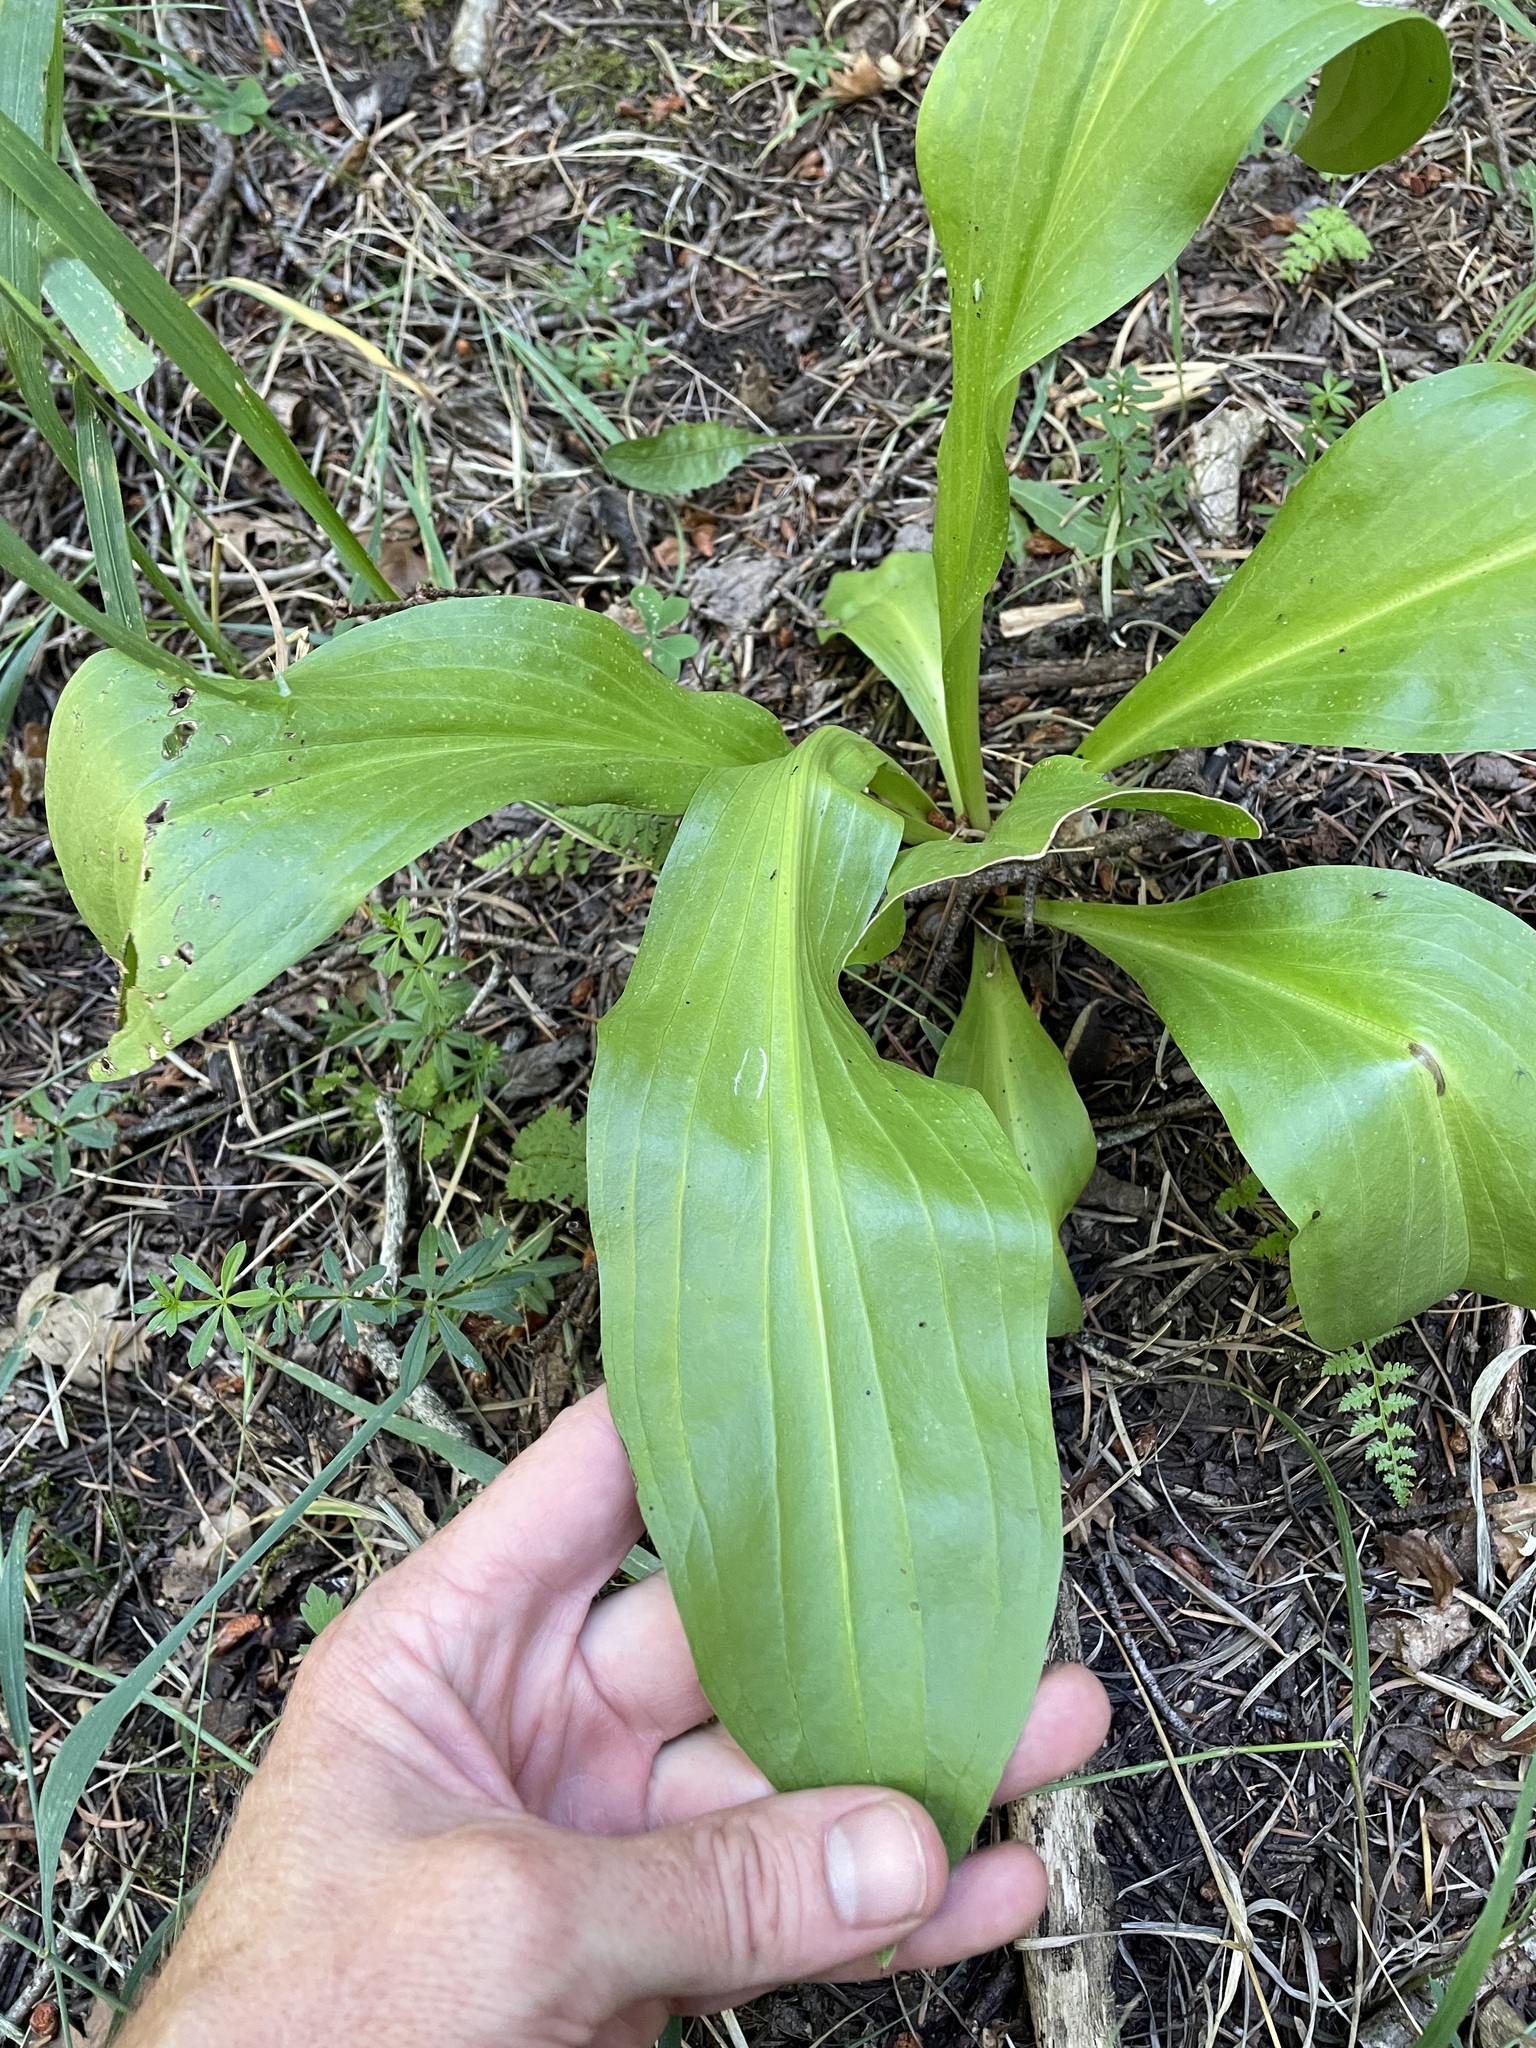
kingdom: Plantae
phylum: Tracheophyta
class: Magnoliopsida
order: Gentianales
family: Gentianaceae
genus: Frasera
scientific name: Frasera speciosa
